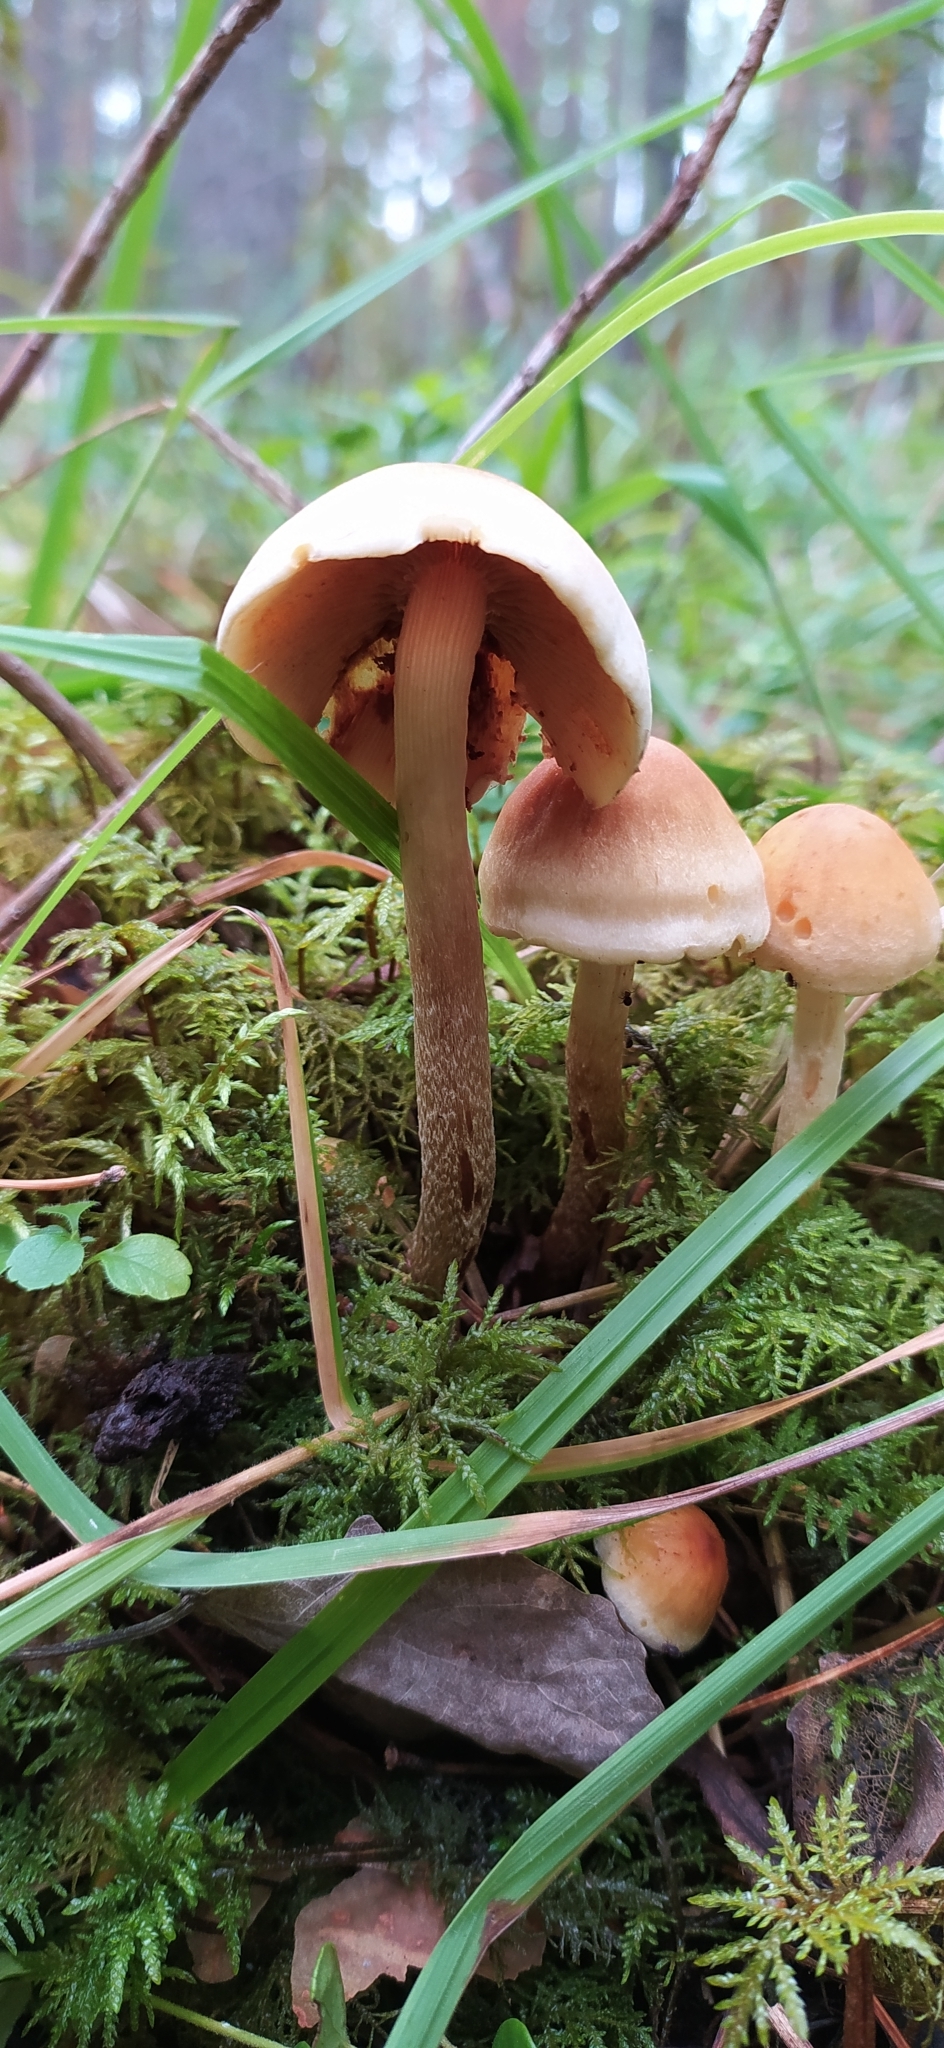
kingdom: Fungi
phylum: Basidiomycota
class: Agaricomycetes
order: Agaricales
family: Strophariaceae
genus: Hypholoma
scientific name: Hypholoma lateritium
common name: Brick caps
